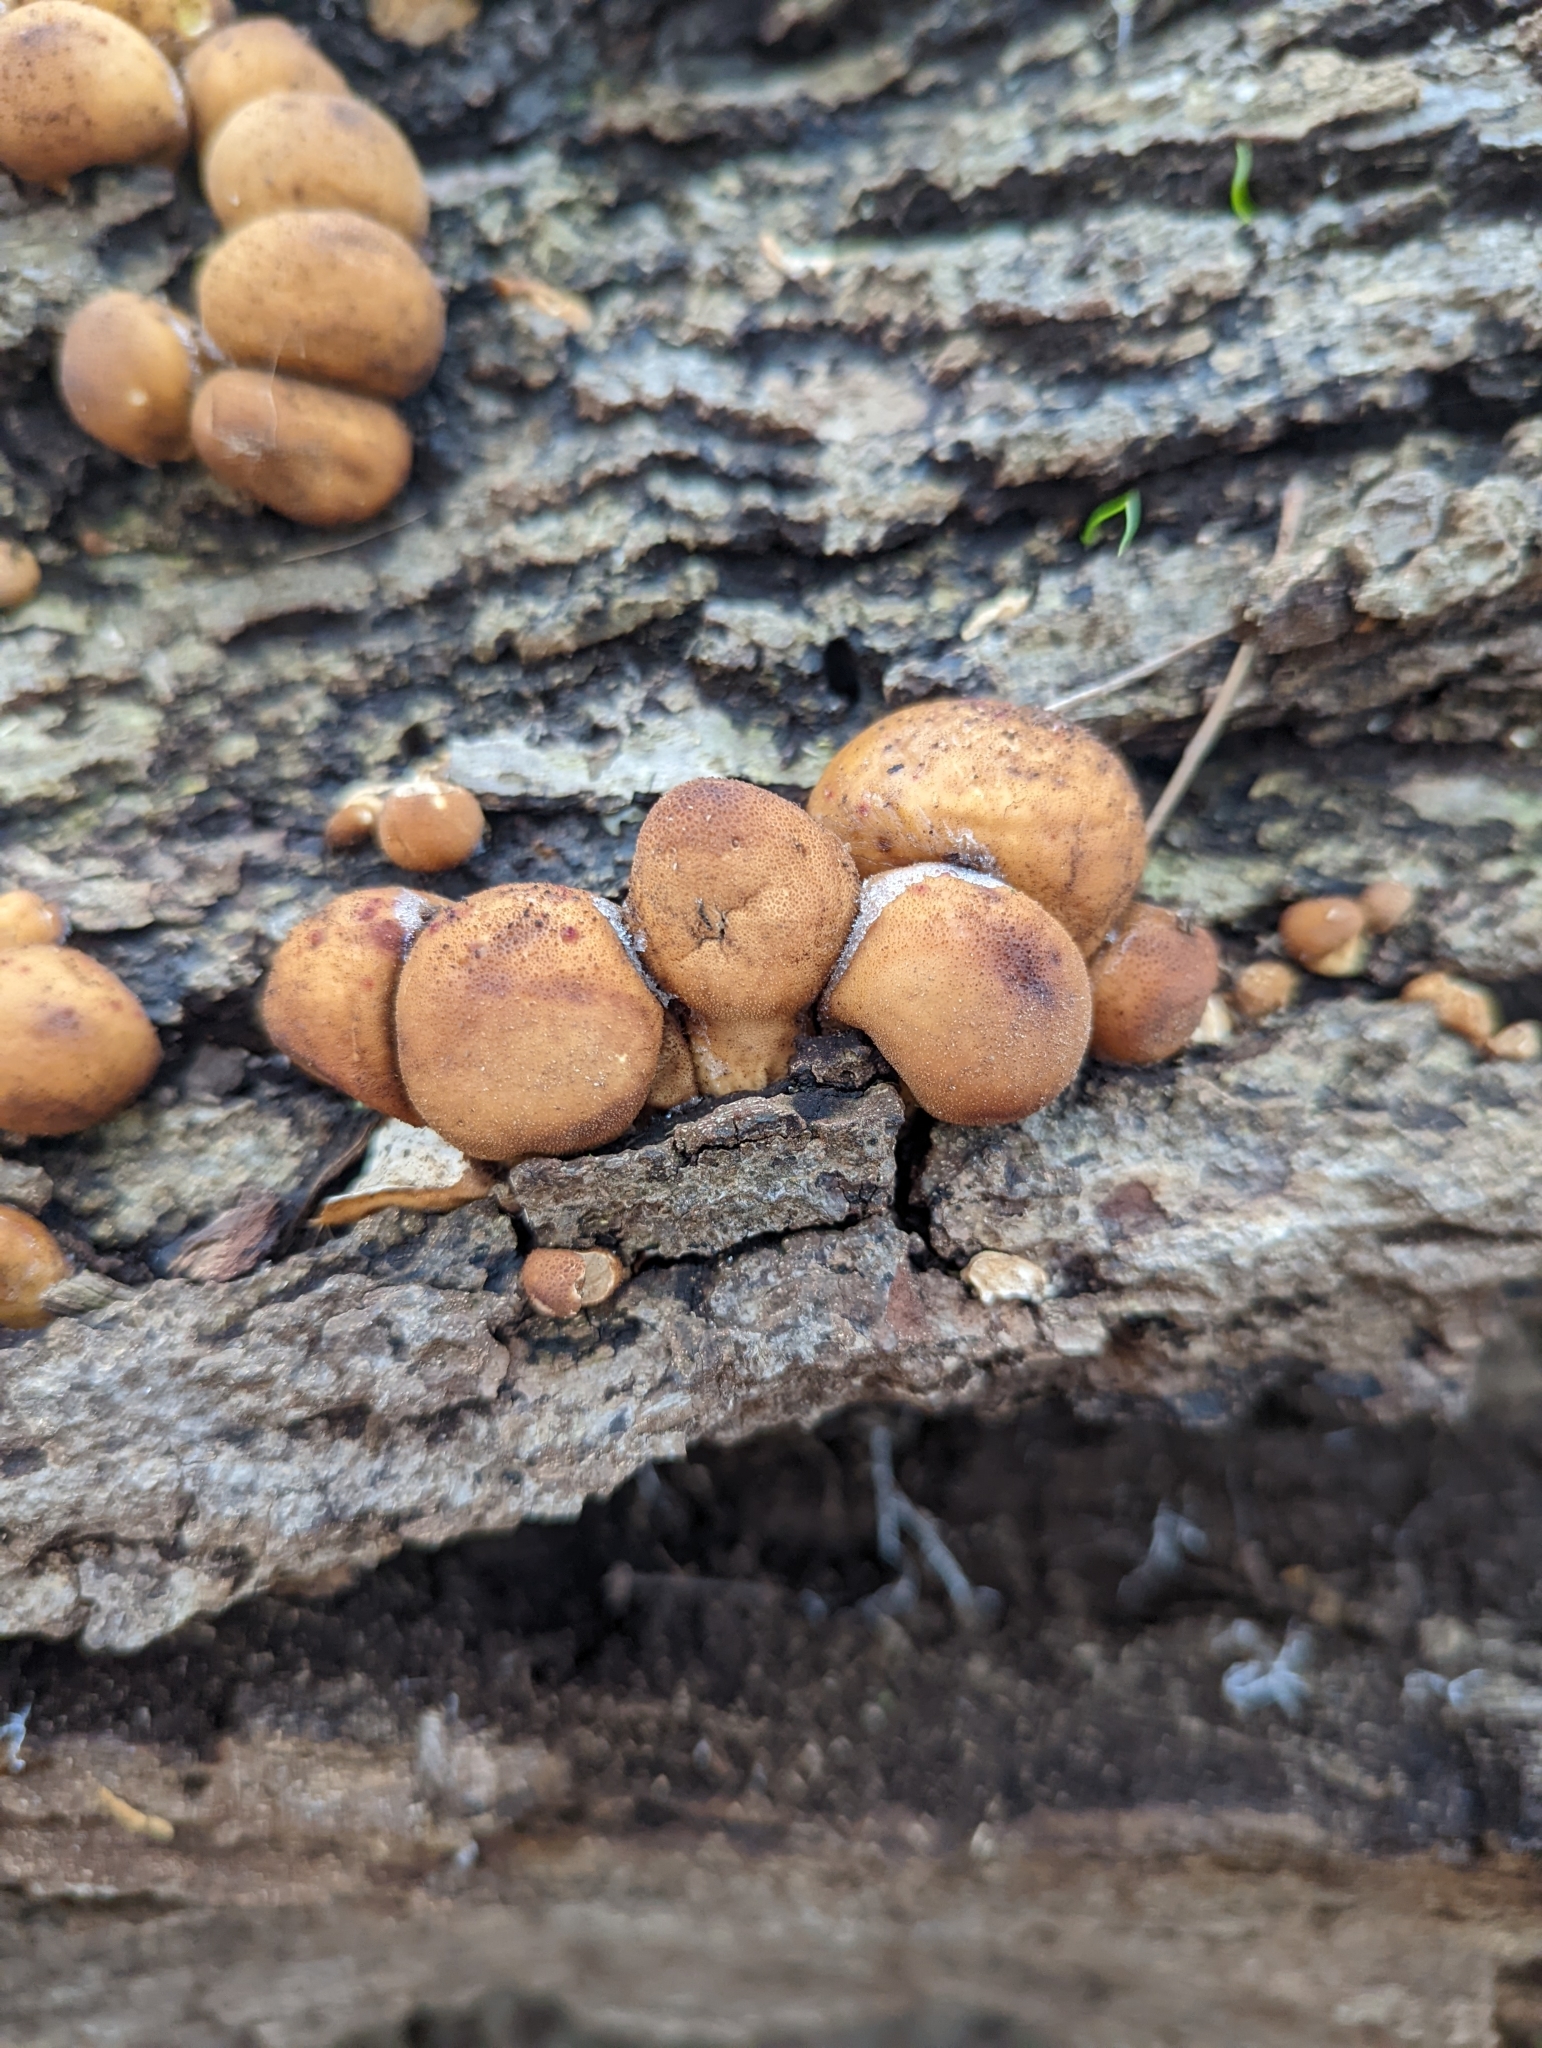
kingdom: Fungi
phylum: Basidiomycota
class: Agaricomycetes
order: Agaricales
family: Lycoperdaceae
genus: Apioperdon
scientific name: Apioperdon pyriforme
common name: Pear-shaped puffball
